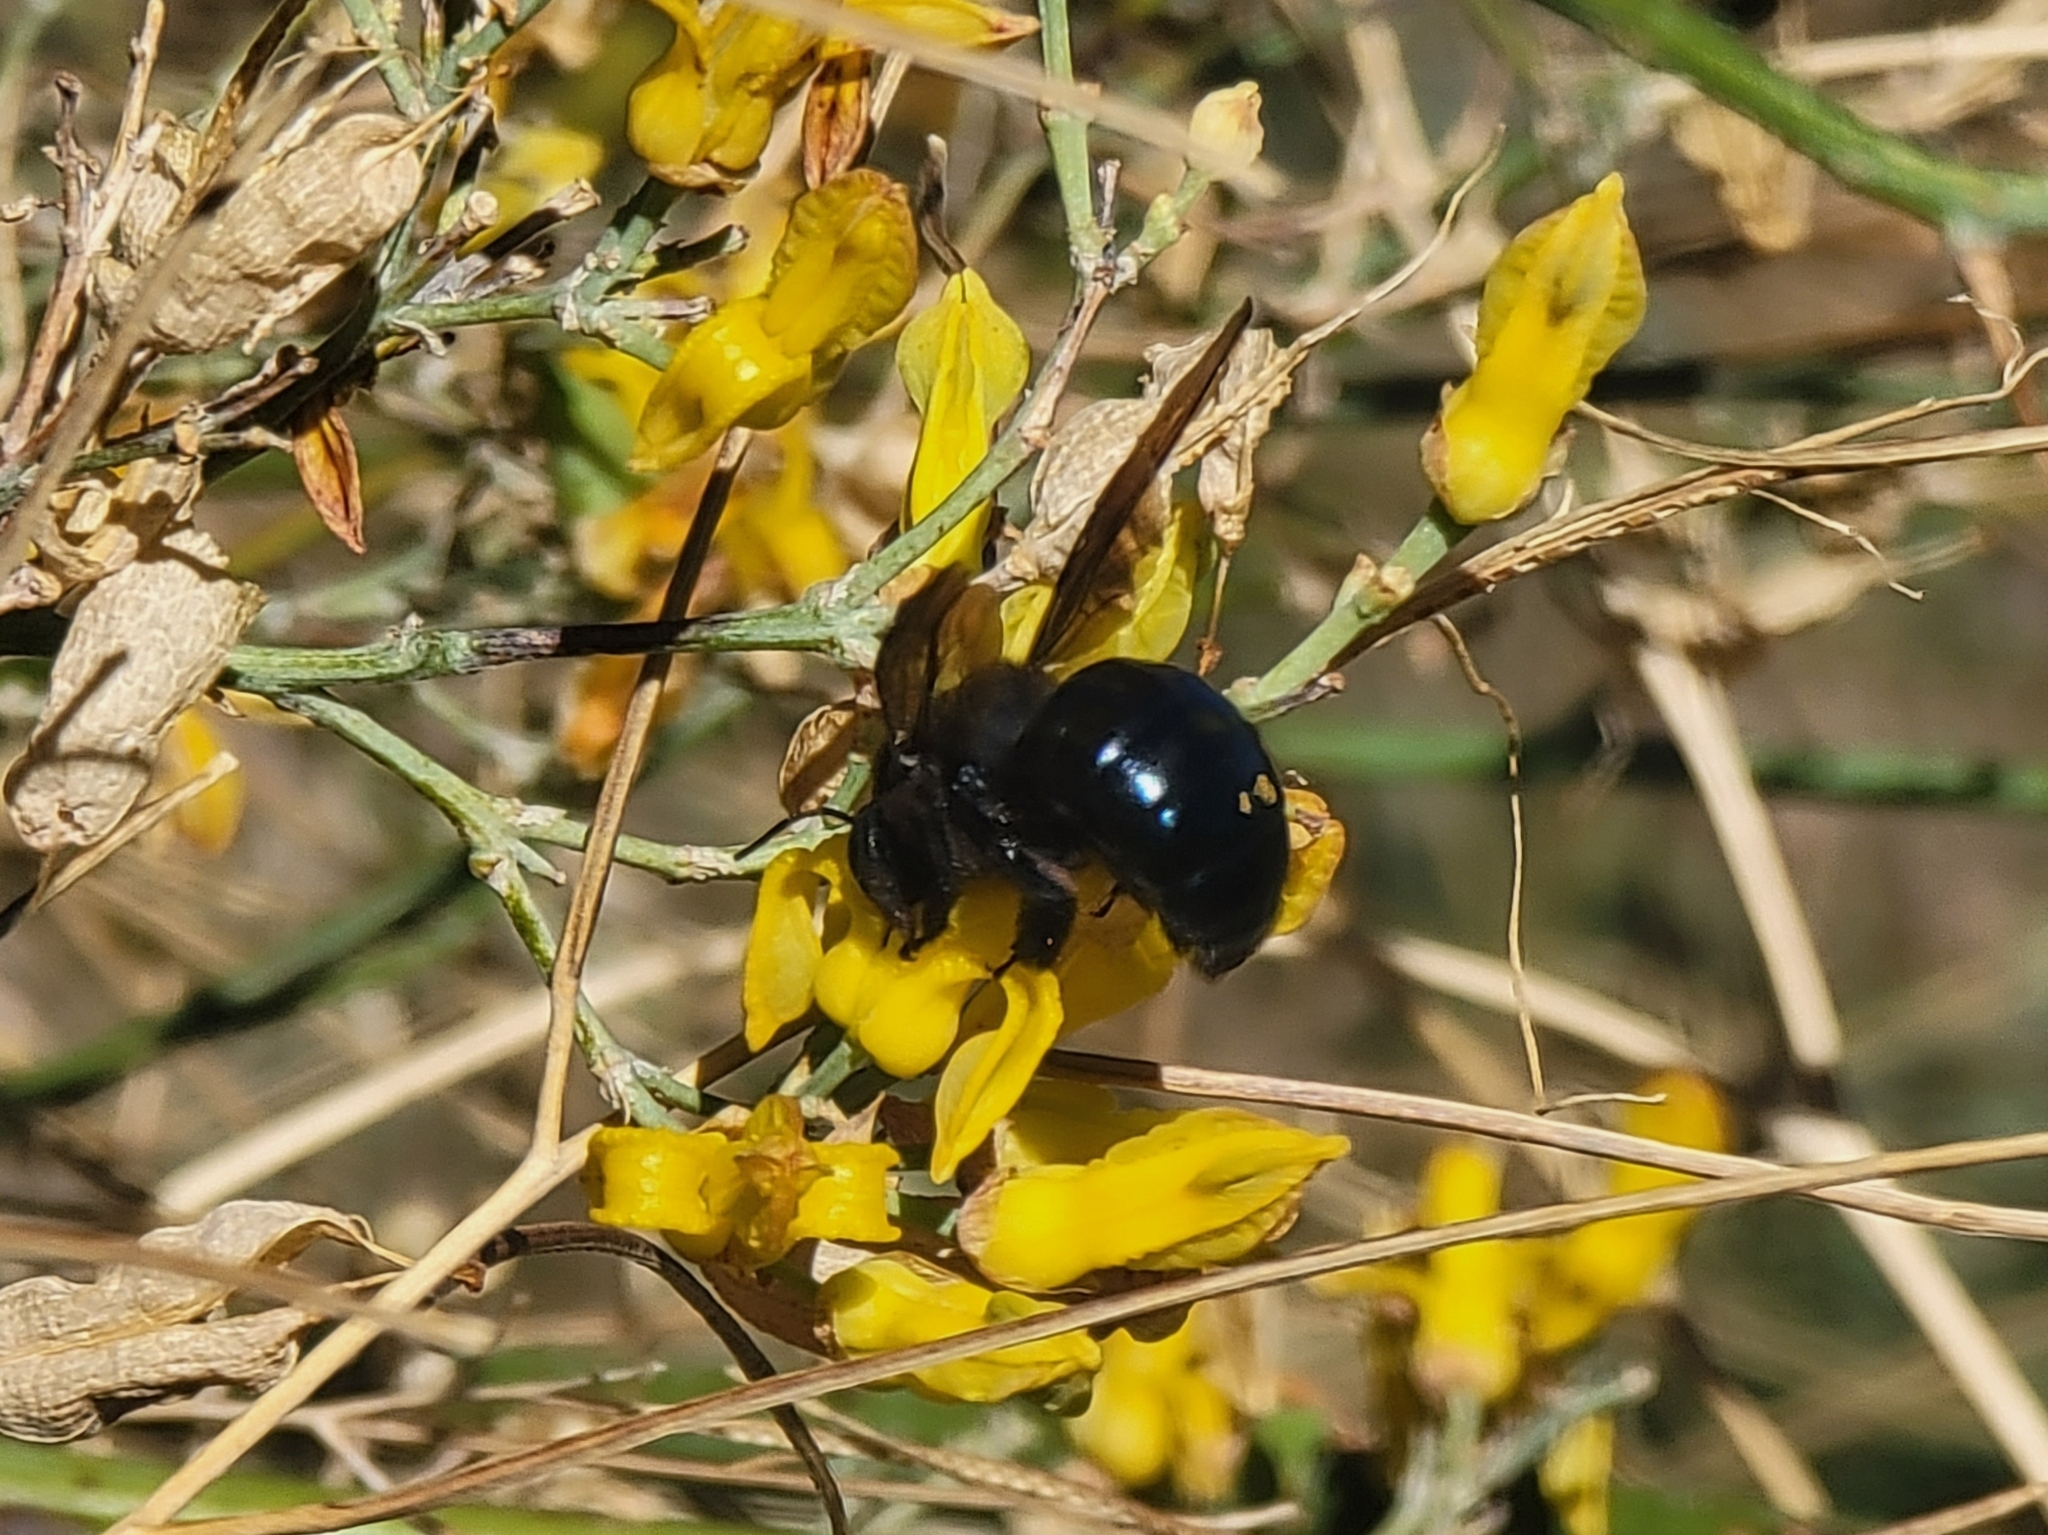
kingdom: Animalia
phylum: Arthropoda
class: Insecta
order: Hymenoptera
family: Apidae
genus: Xylocopa
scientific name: Xylocopa californica
